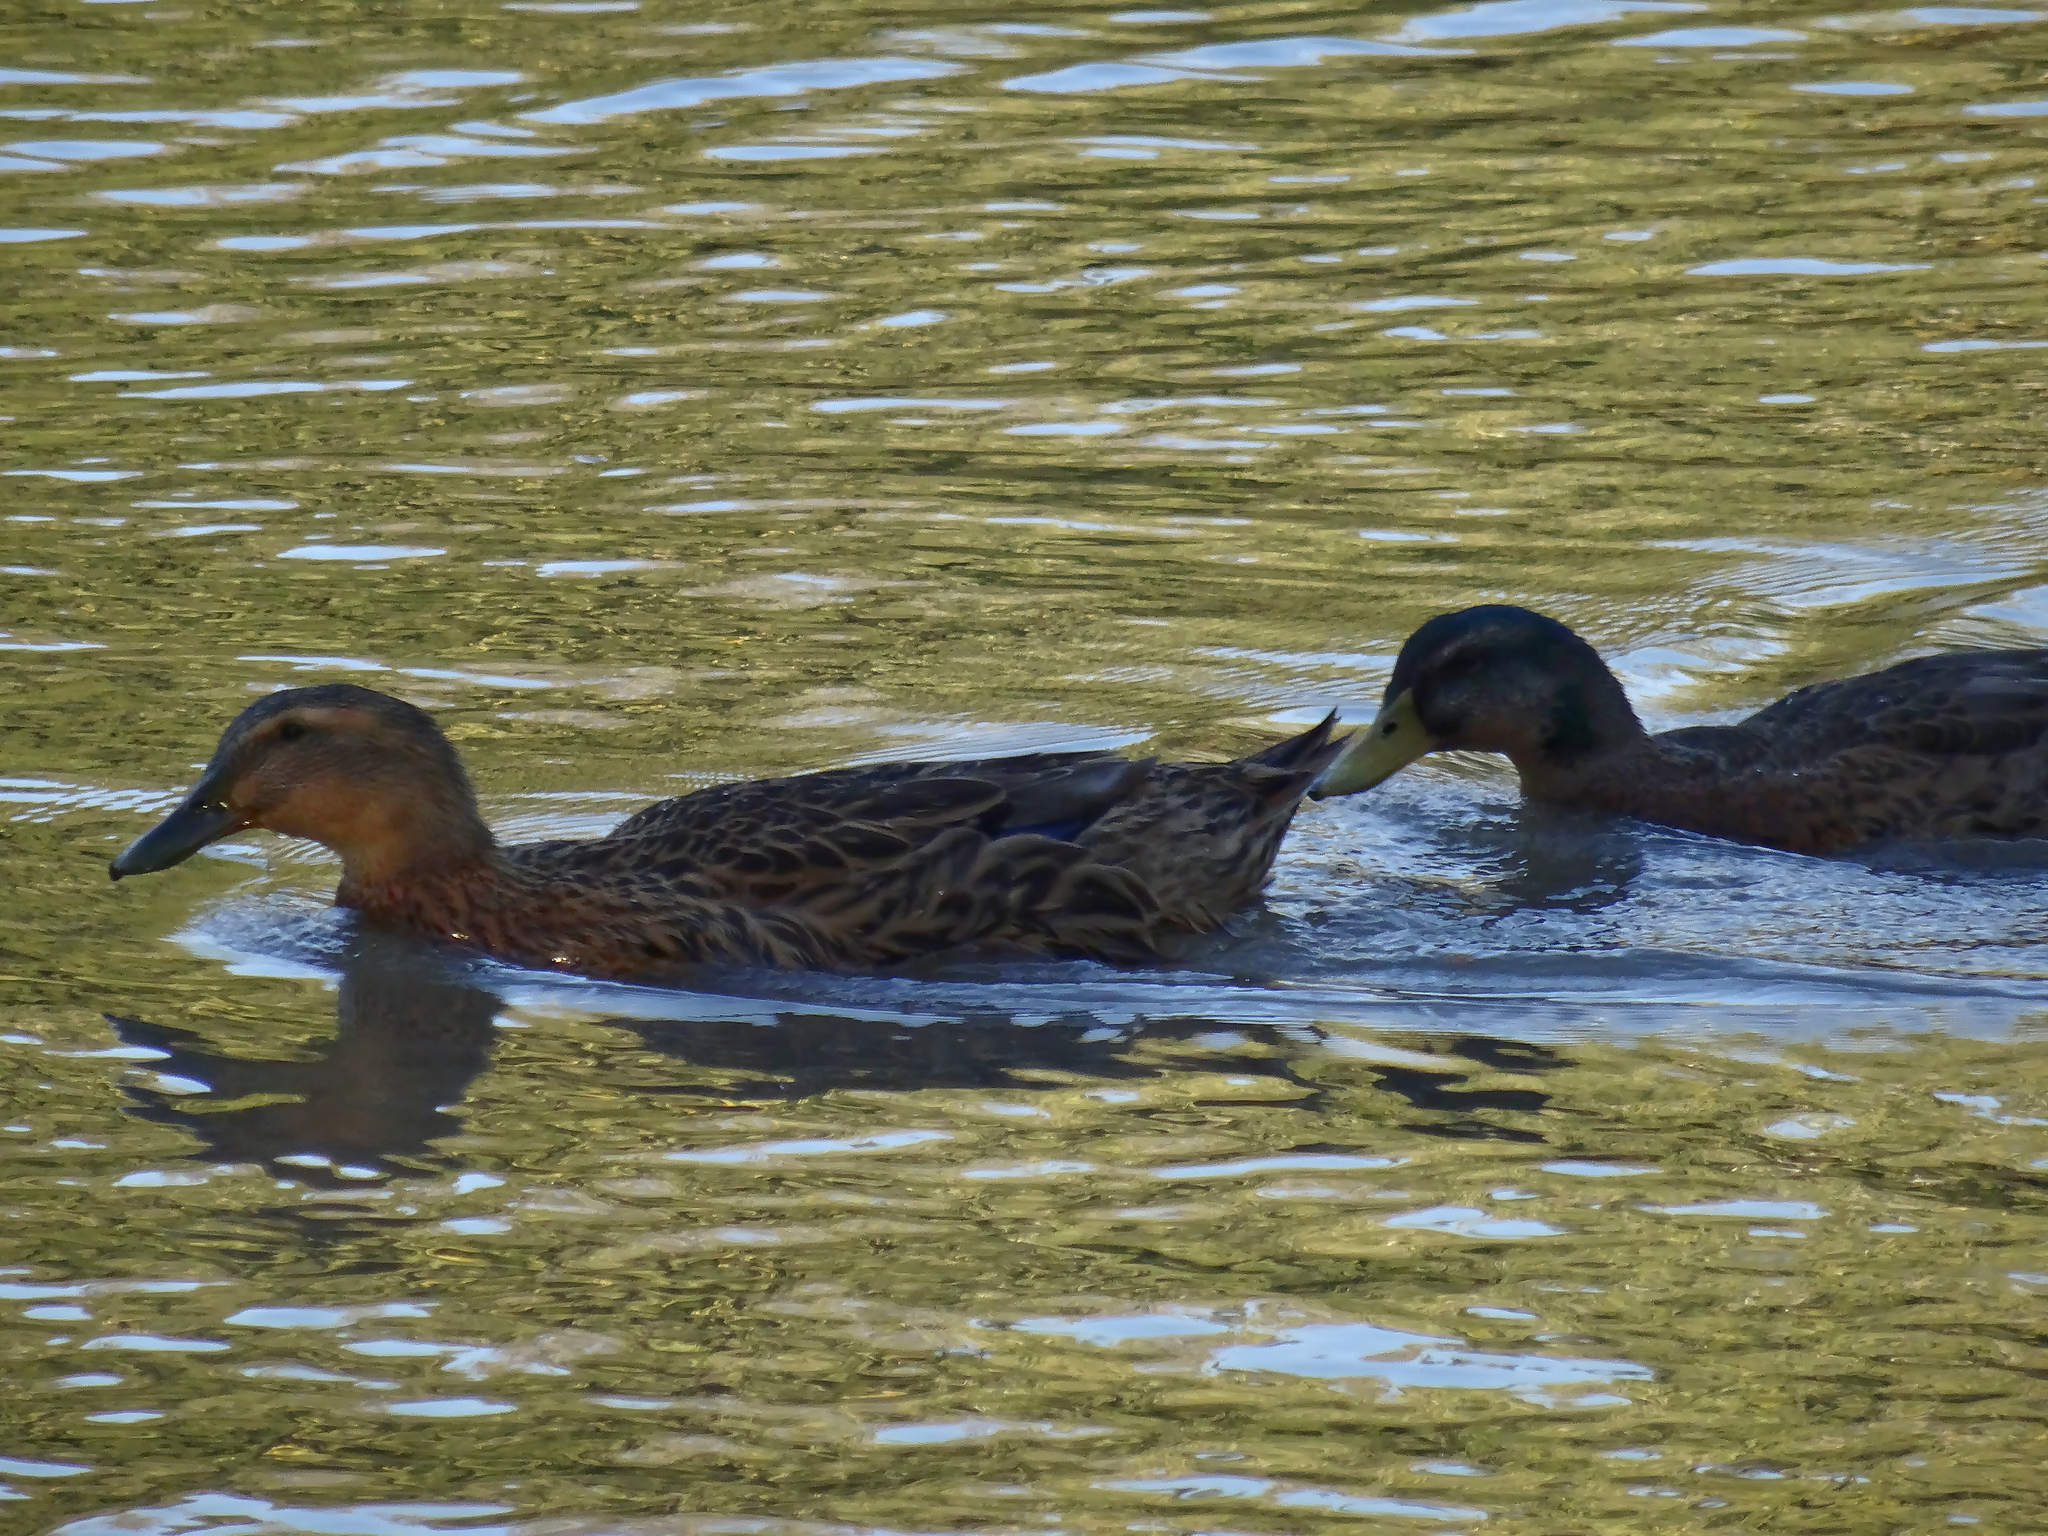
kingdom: Animalia
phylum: Chordata
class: Aves
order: Anseriformes
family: Anatidae
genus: Anas
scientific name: Anas platyrhynchos
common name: Mallard
